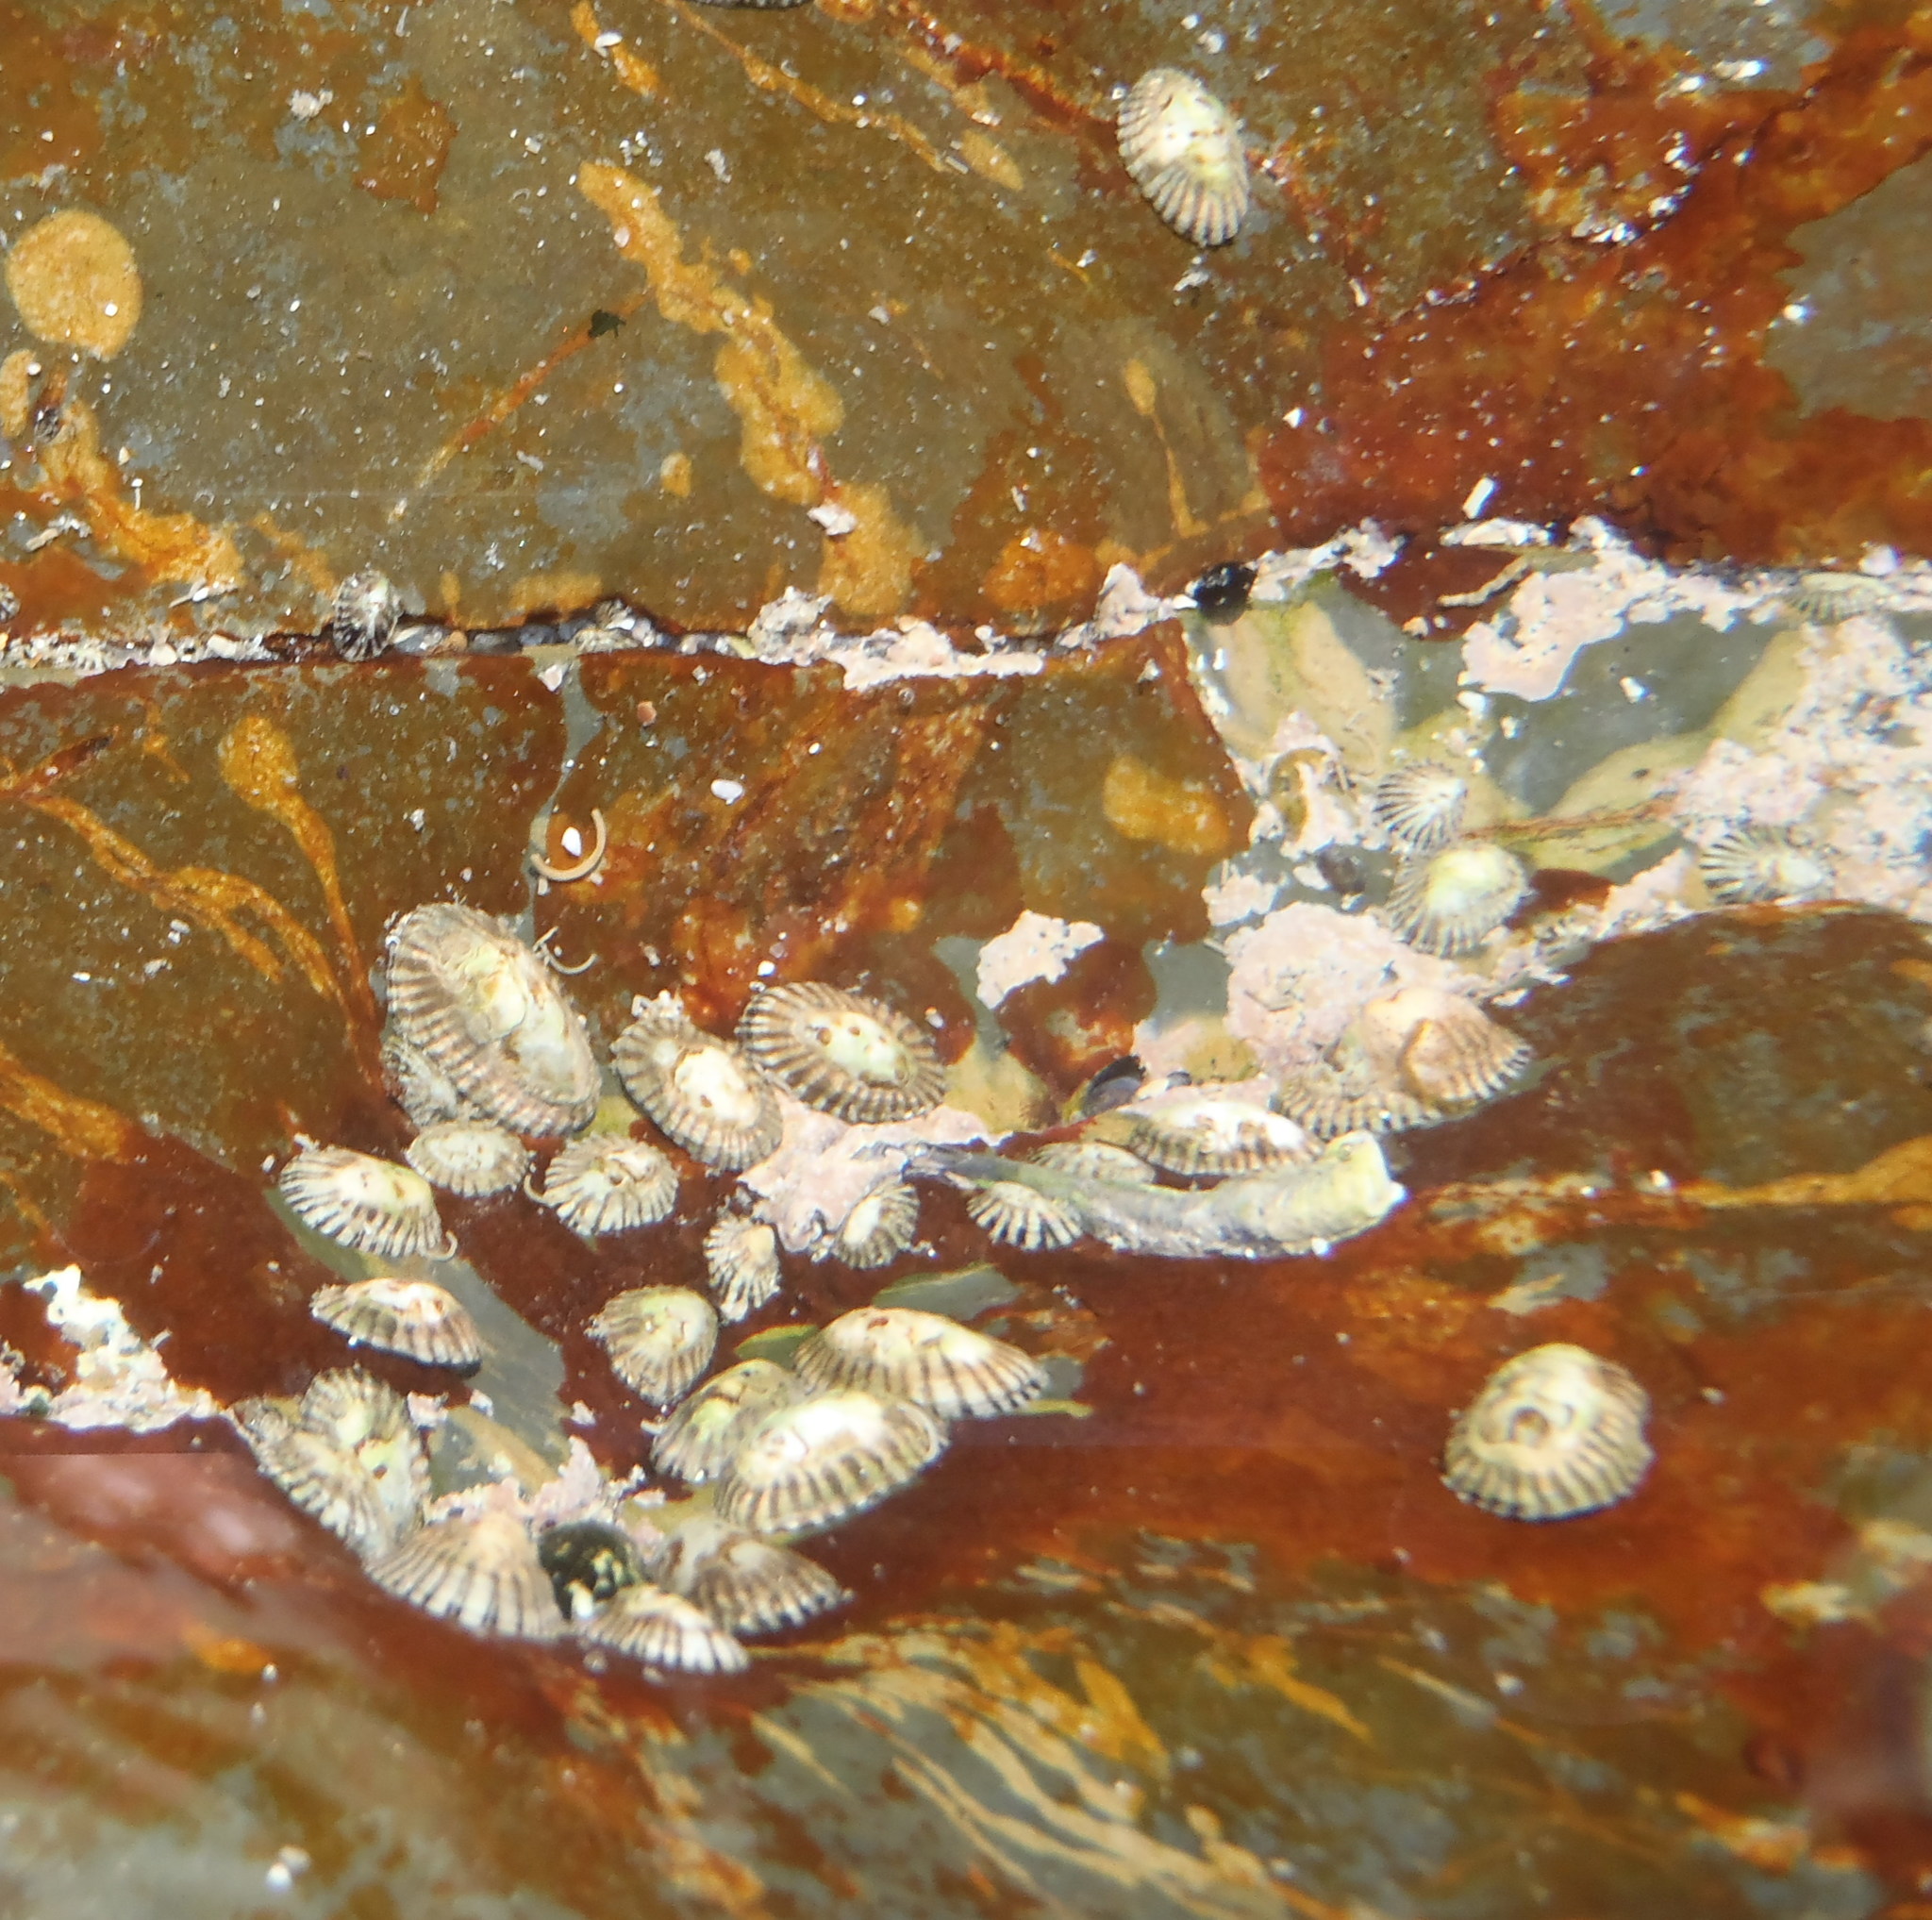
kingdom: Animalia
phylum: Mollusca
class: Gastropoda
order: Siphonariida
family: Siphonariidae
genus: Siphonaria
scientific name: Siphonaria capensis
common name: Cape false limpet
